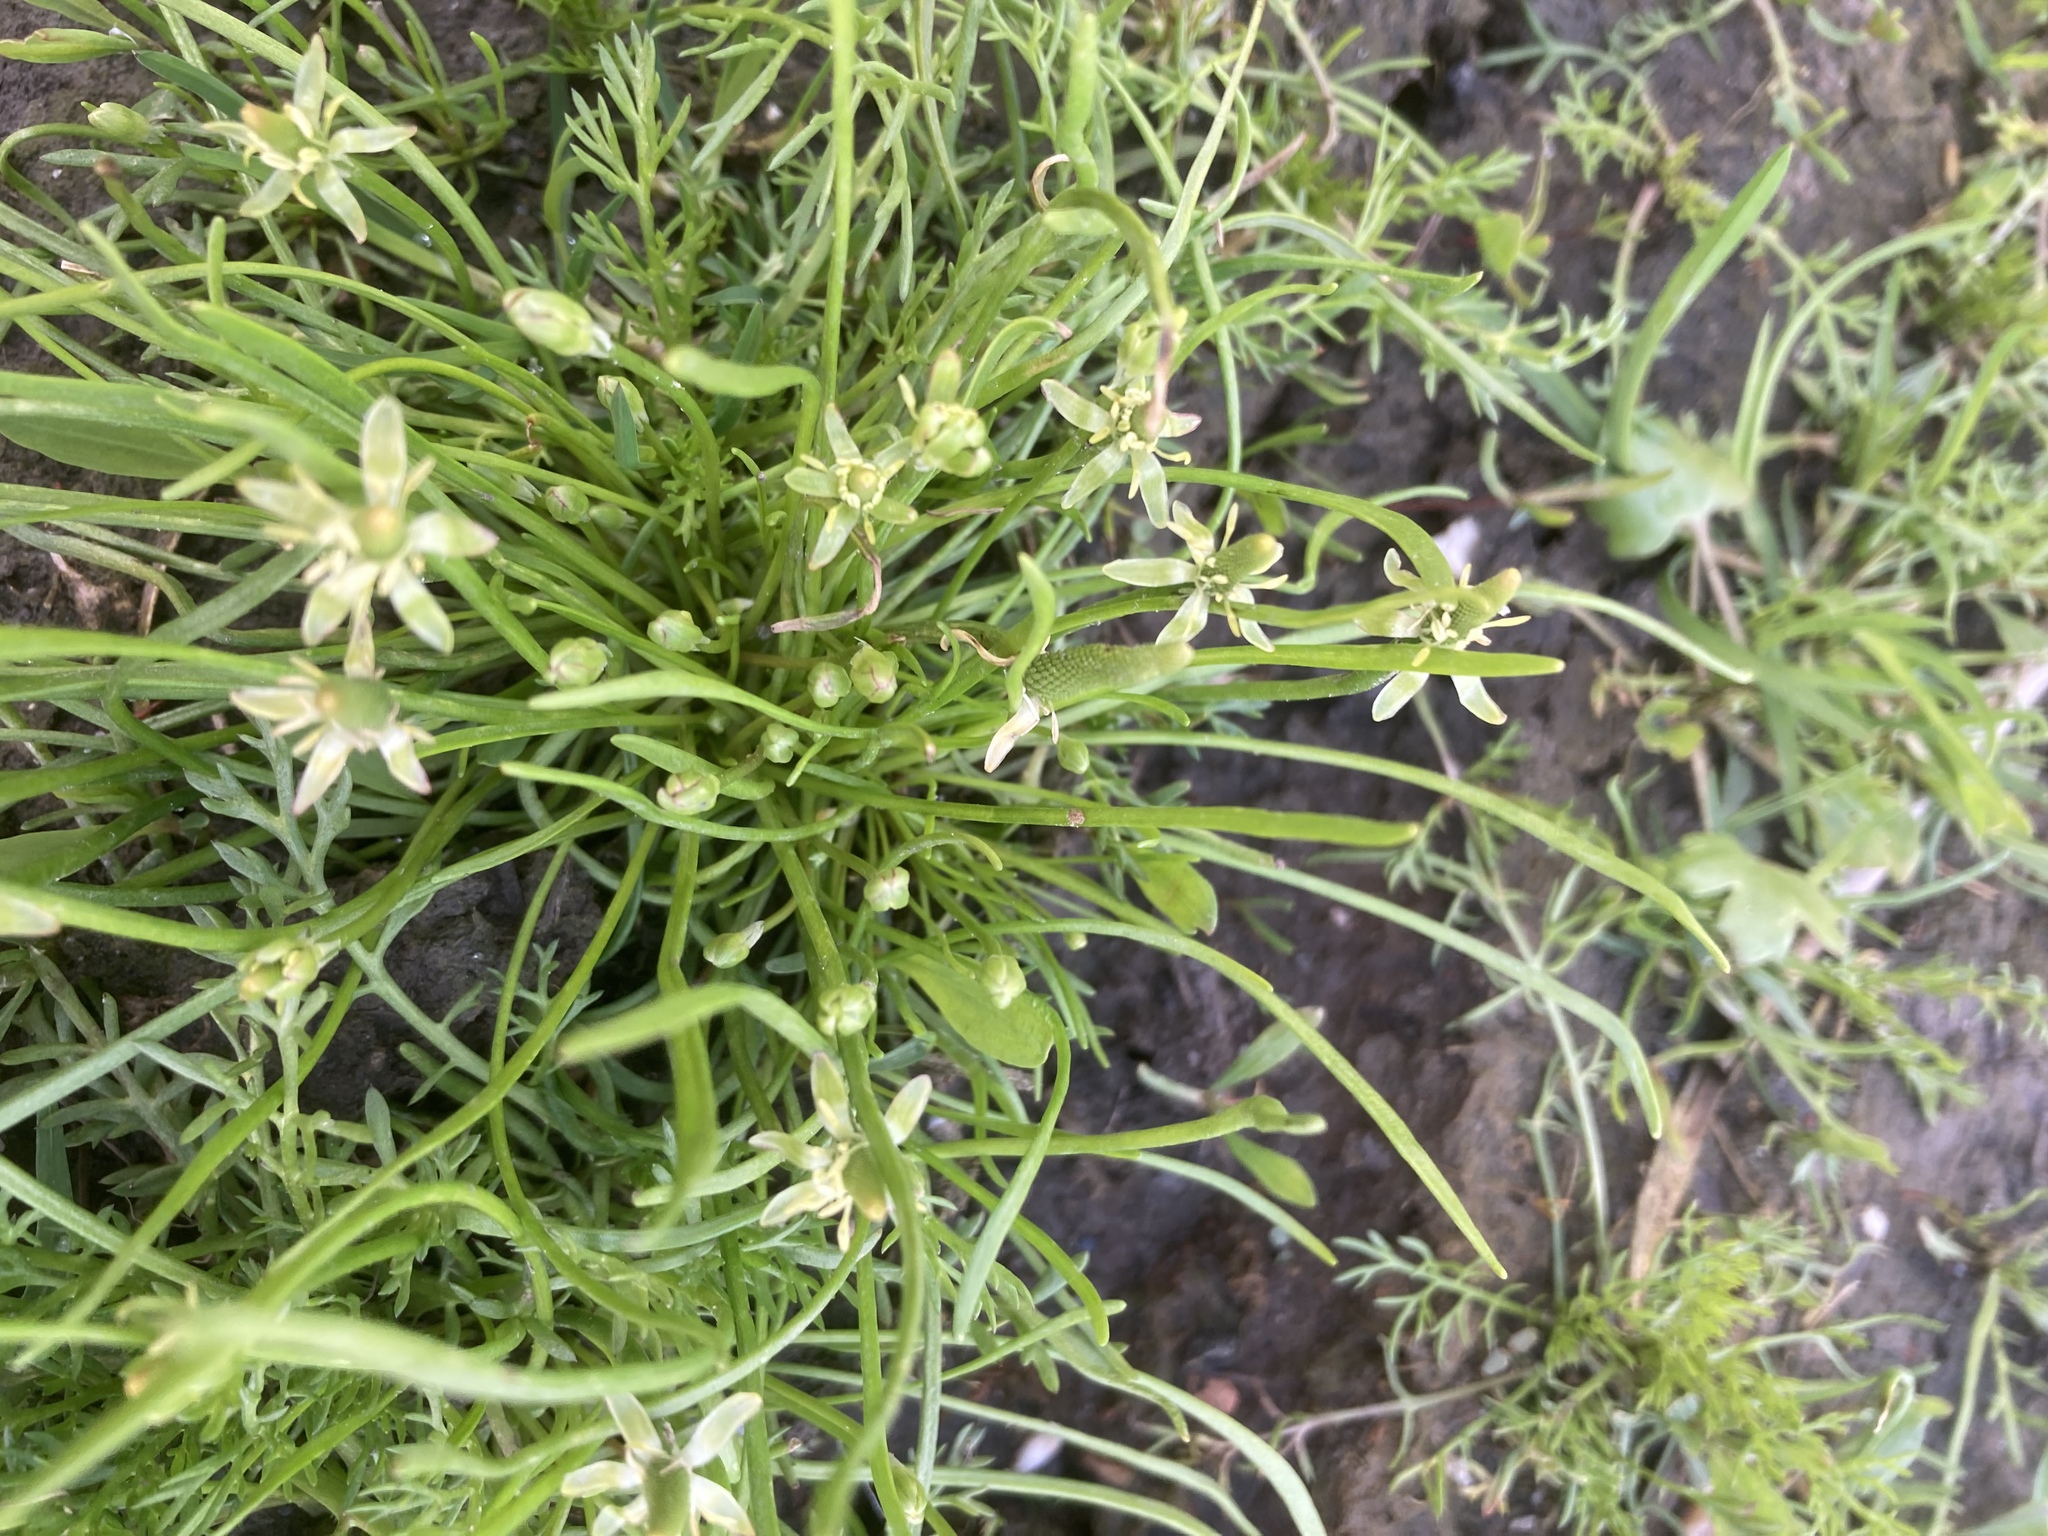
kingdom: Plantae
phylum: Tracheophyta
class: Magnoliopsida
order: Ranunculales
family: Ranunculaceae
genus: Myosurus
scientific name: Myosurus minimus
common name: Mousetail
